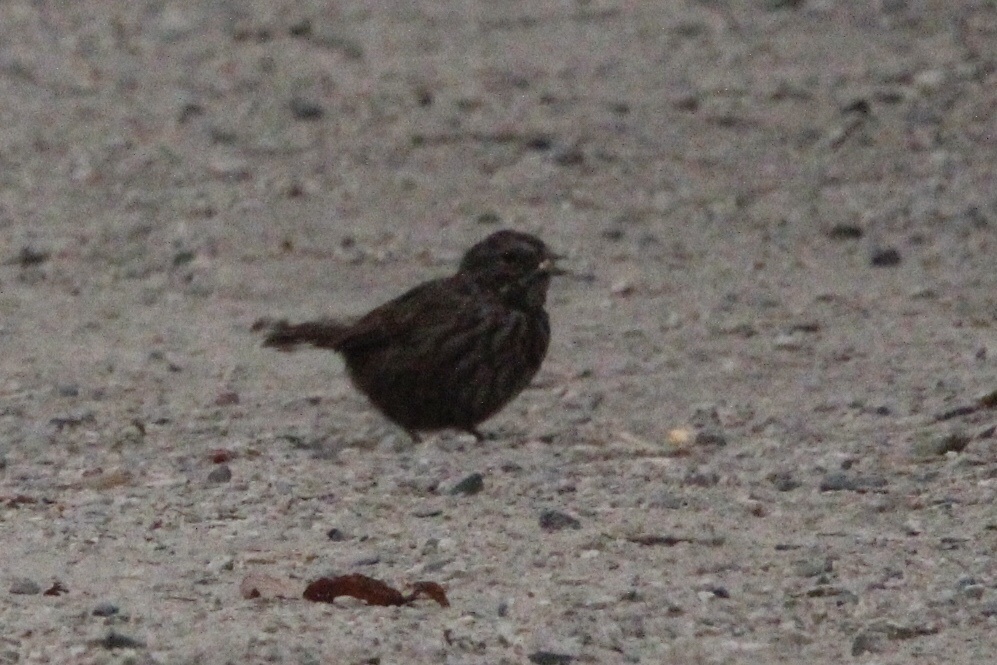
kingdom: Animalia
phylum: Chordata
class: Aves
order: Passeriformes
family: Passerellidae
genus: Melospiza
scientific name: Melospiza melodia
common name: Song sparrow
